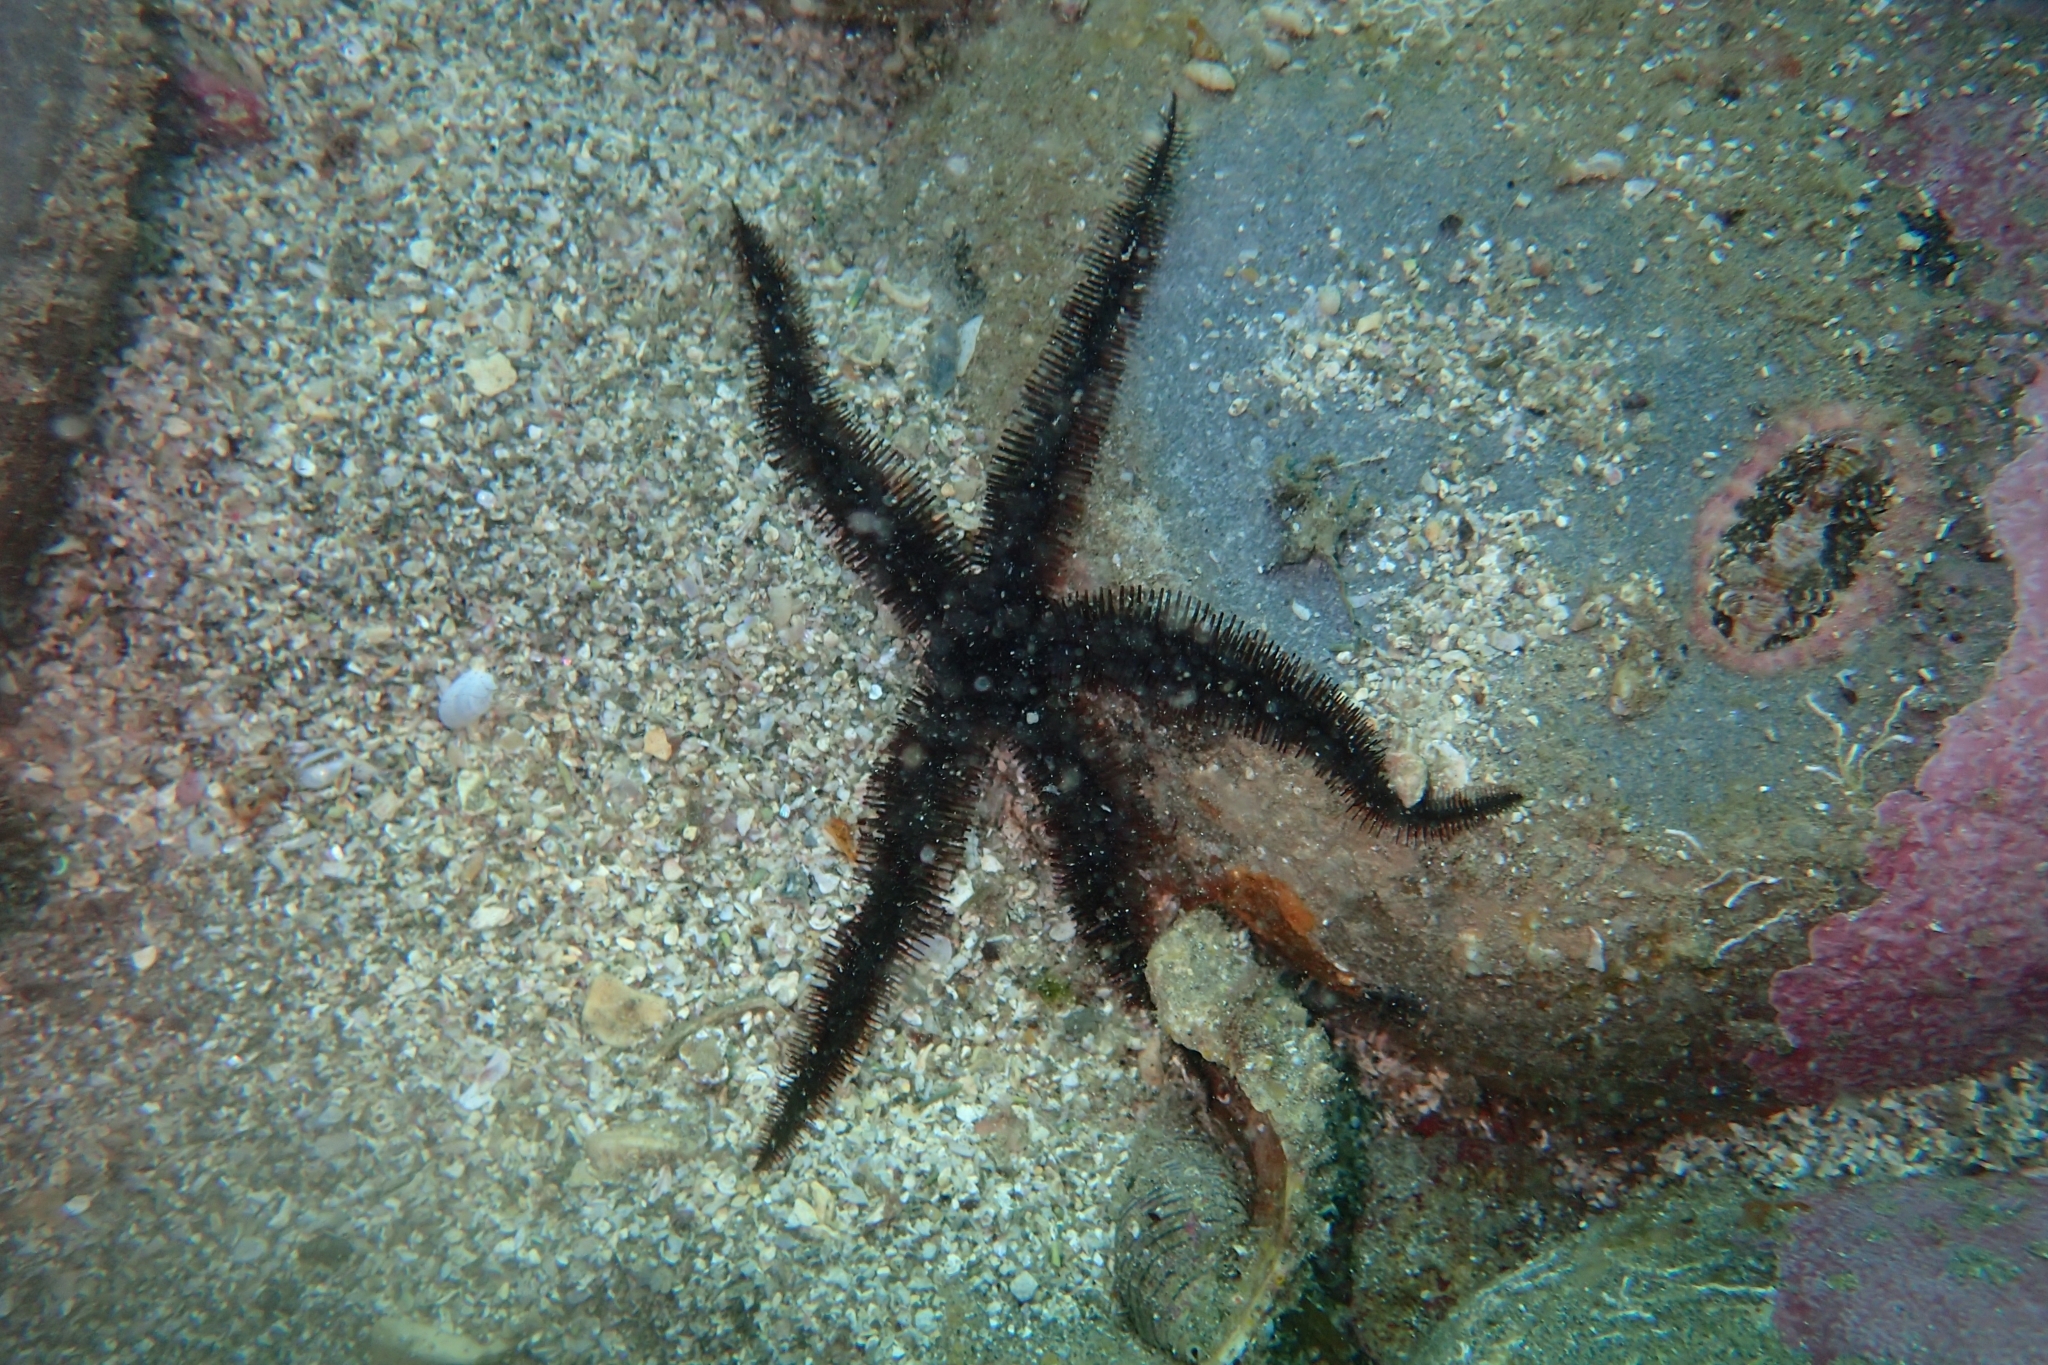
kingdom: Animalia
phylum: Echinodermata
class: Ophiuroidea
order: Ophiacanthida
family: Ophiopteridae
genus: Ophiopteris
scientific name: Ophiopteris antipodum
